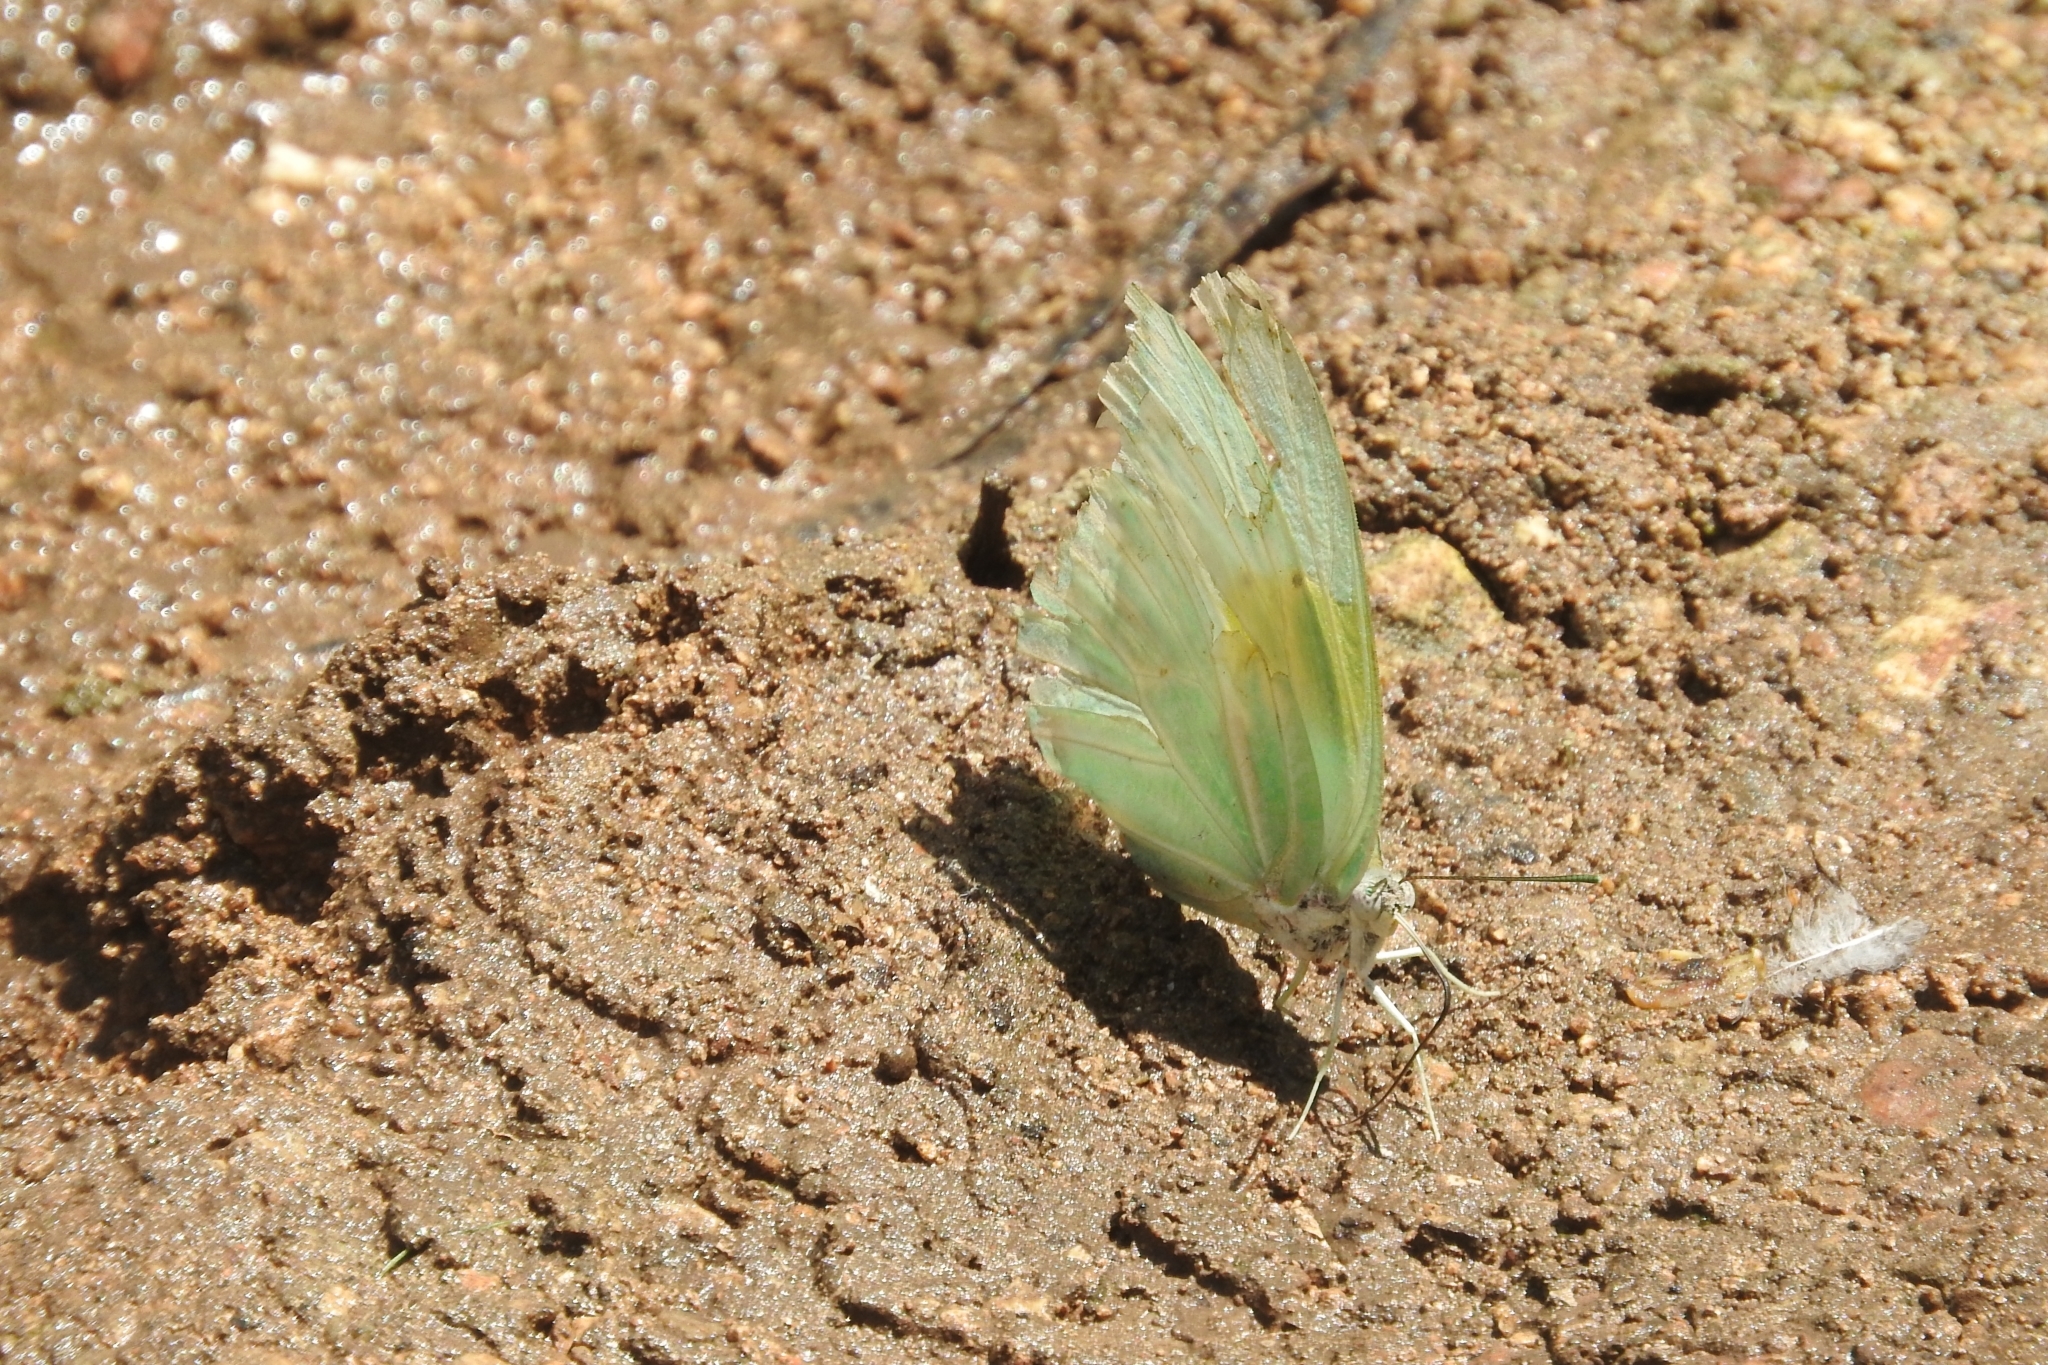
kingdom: Animalia
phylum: Arthropoda
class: Insecta
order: Lepidoptera
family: Pieridae
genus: Anteos
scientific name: Anteos clorinde
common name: White angled sulphur
